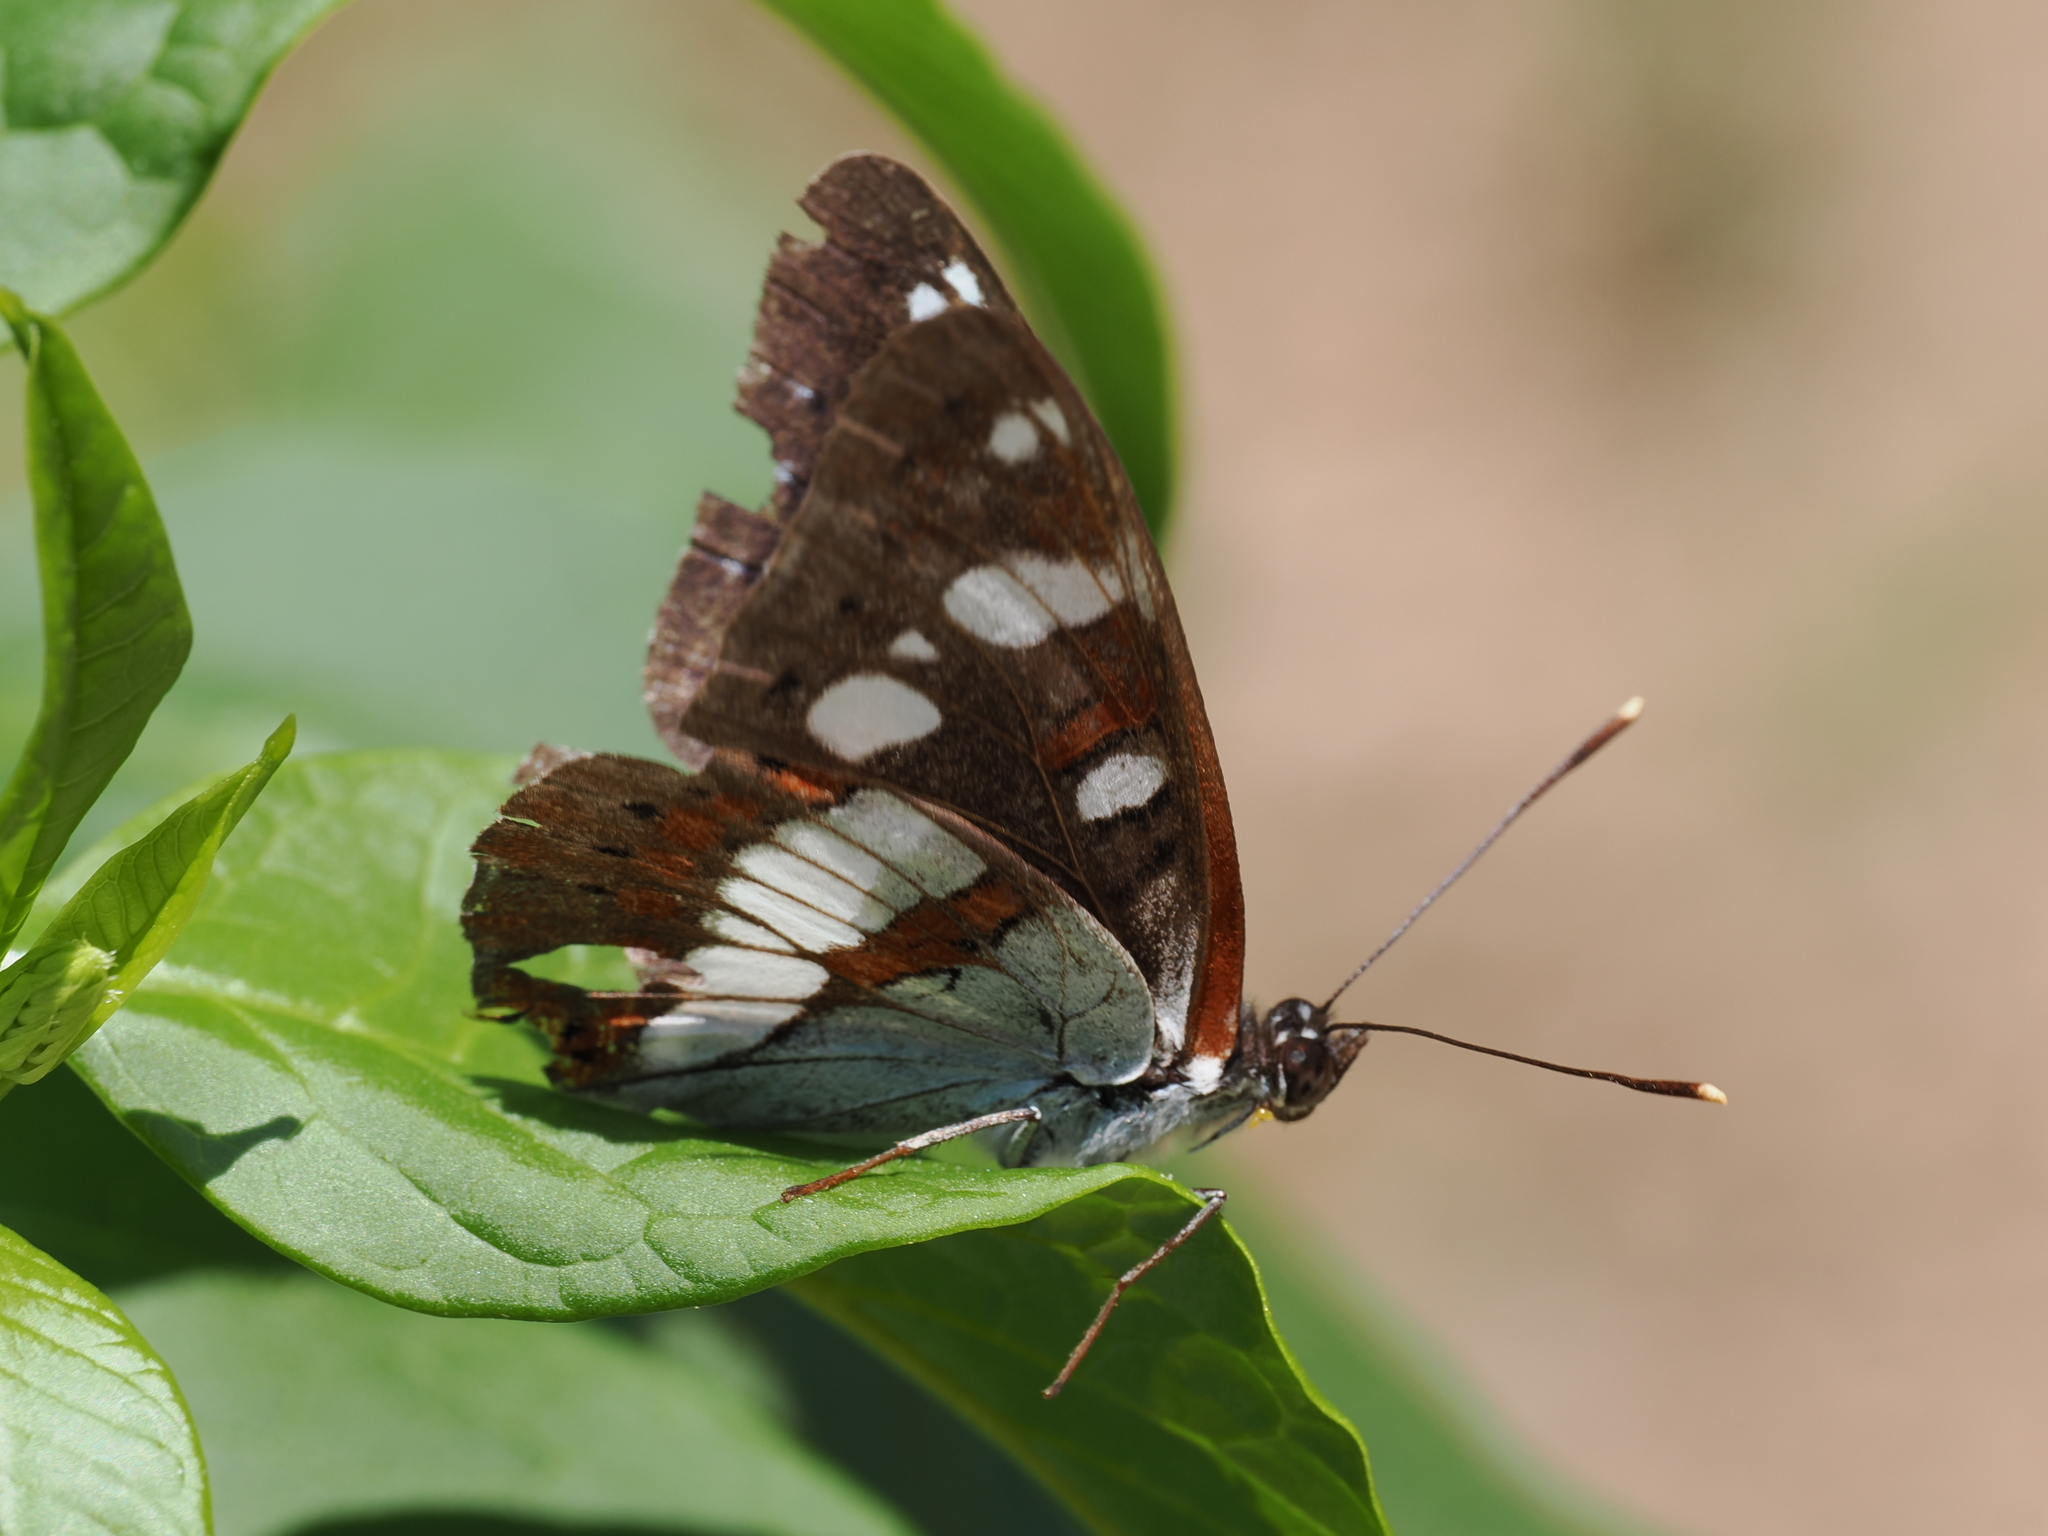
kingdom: Animalia
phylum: Arthropoda
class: Insecta
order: Lepidoptera
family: Nymphalidae
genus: Limenitis
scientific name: Limenitis reducta
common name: Southern white admiral
